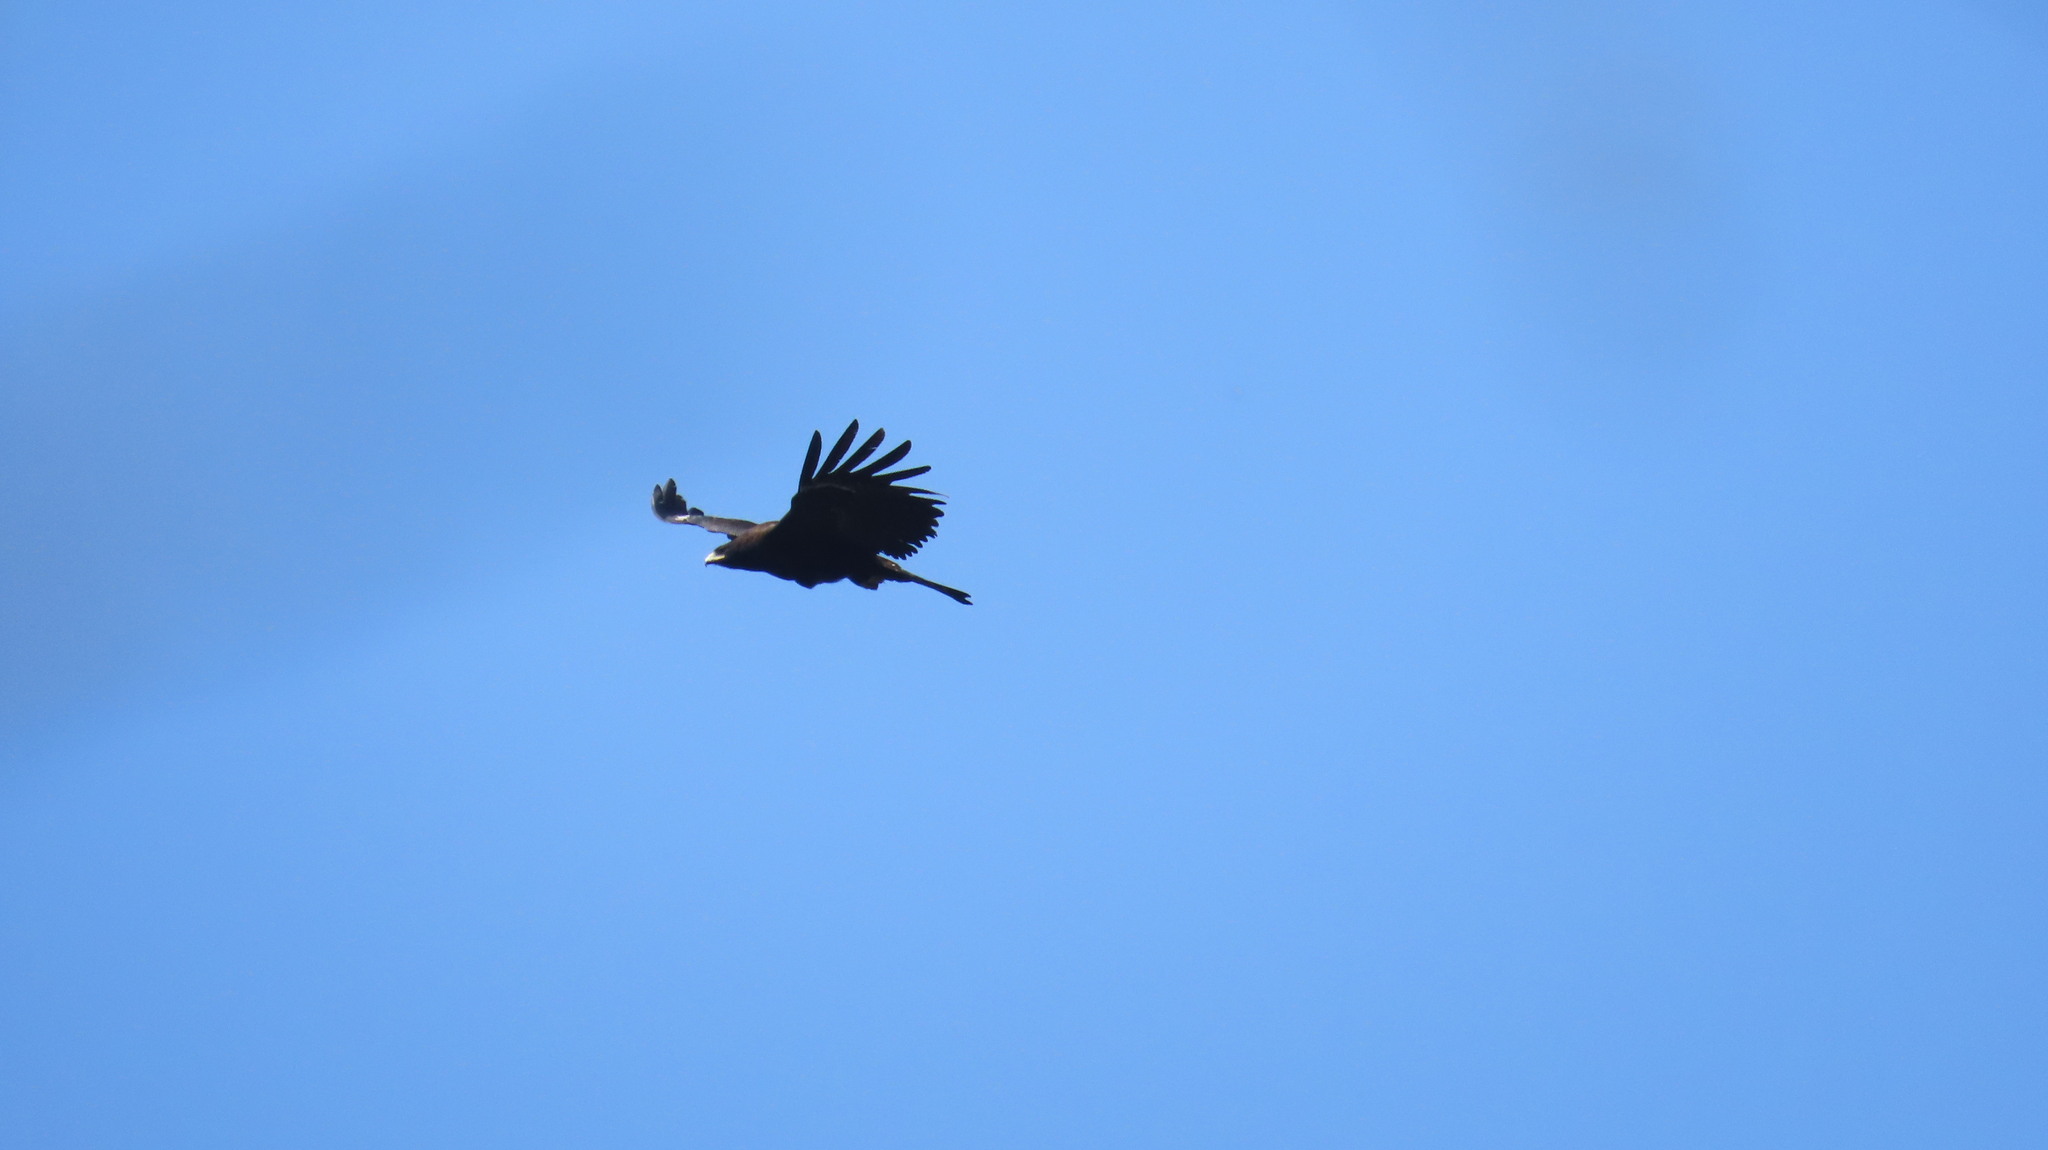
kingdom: Animalia
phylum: Chordata
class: Aves
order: Accipitriformes
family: Accipitridae
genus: Ictinaetus
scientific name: Ictinaetus malayensis
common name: Black eagle
